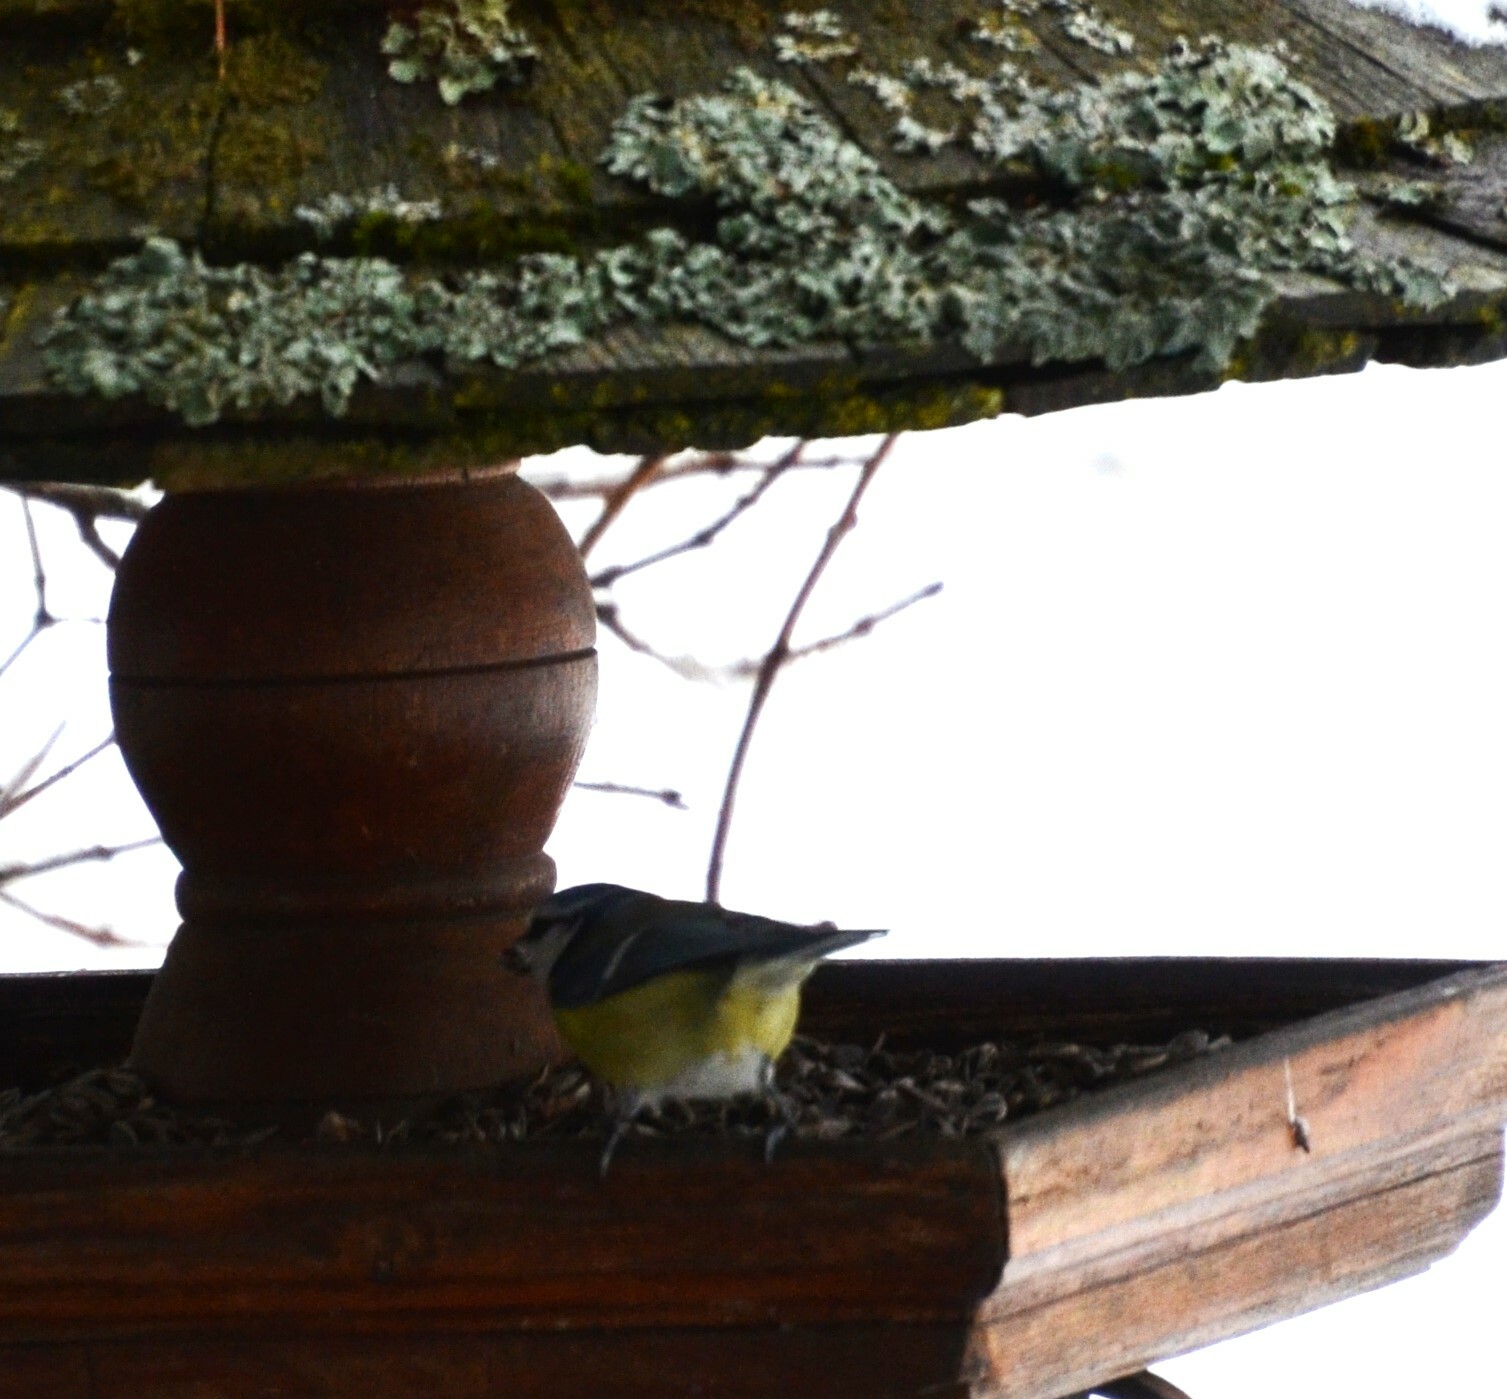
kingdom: Animalia
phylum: Chordata
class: Aves
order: Passeriformes
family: Paridae
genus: Cyanistes
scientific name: Cyanistes caeruleus
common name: Eurasian blue tit
